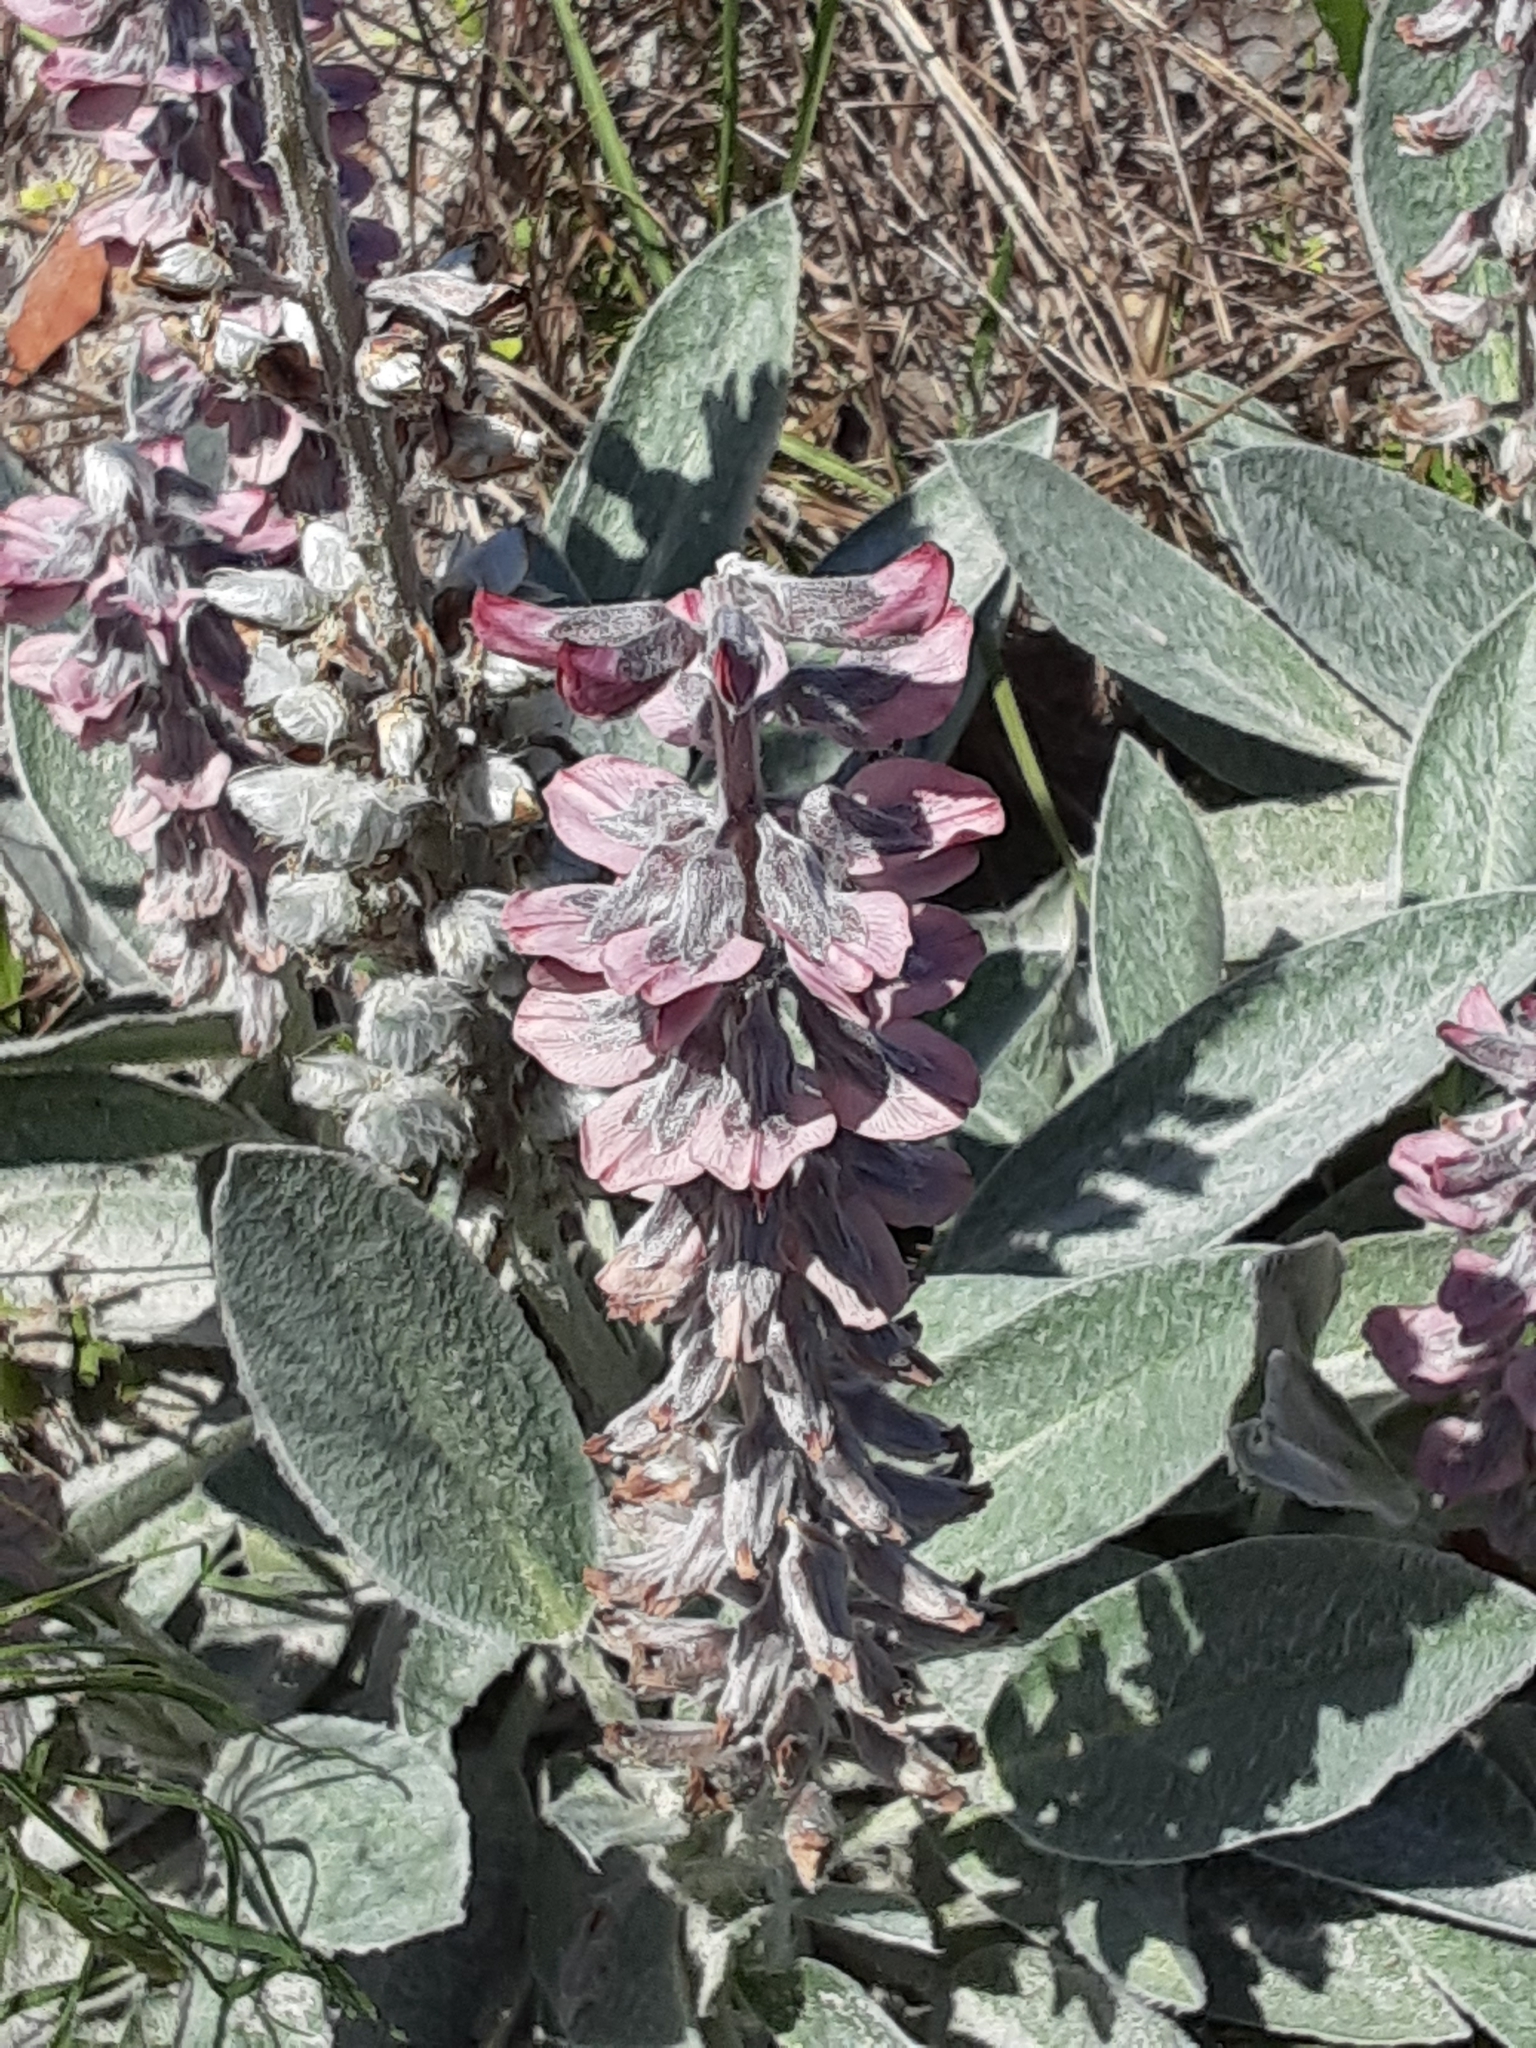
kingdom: Plantae
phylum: Tracheophyta
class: Magnoliopsida
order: Fabales
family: Fabaceae
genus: Lupinus
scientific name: Lupinus villosus
